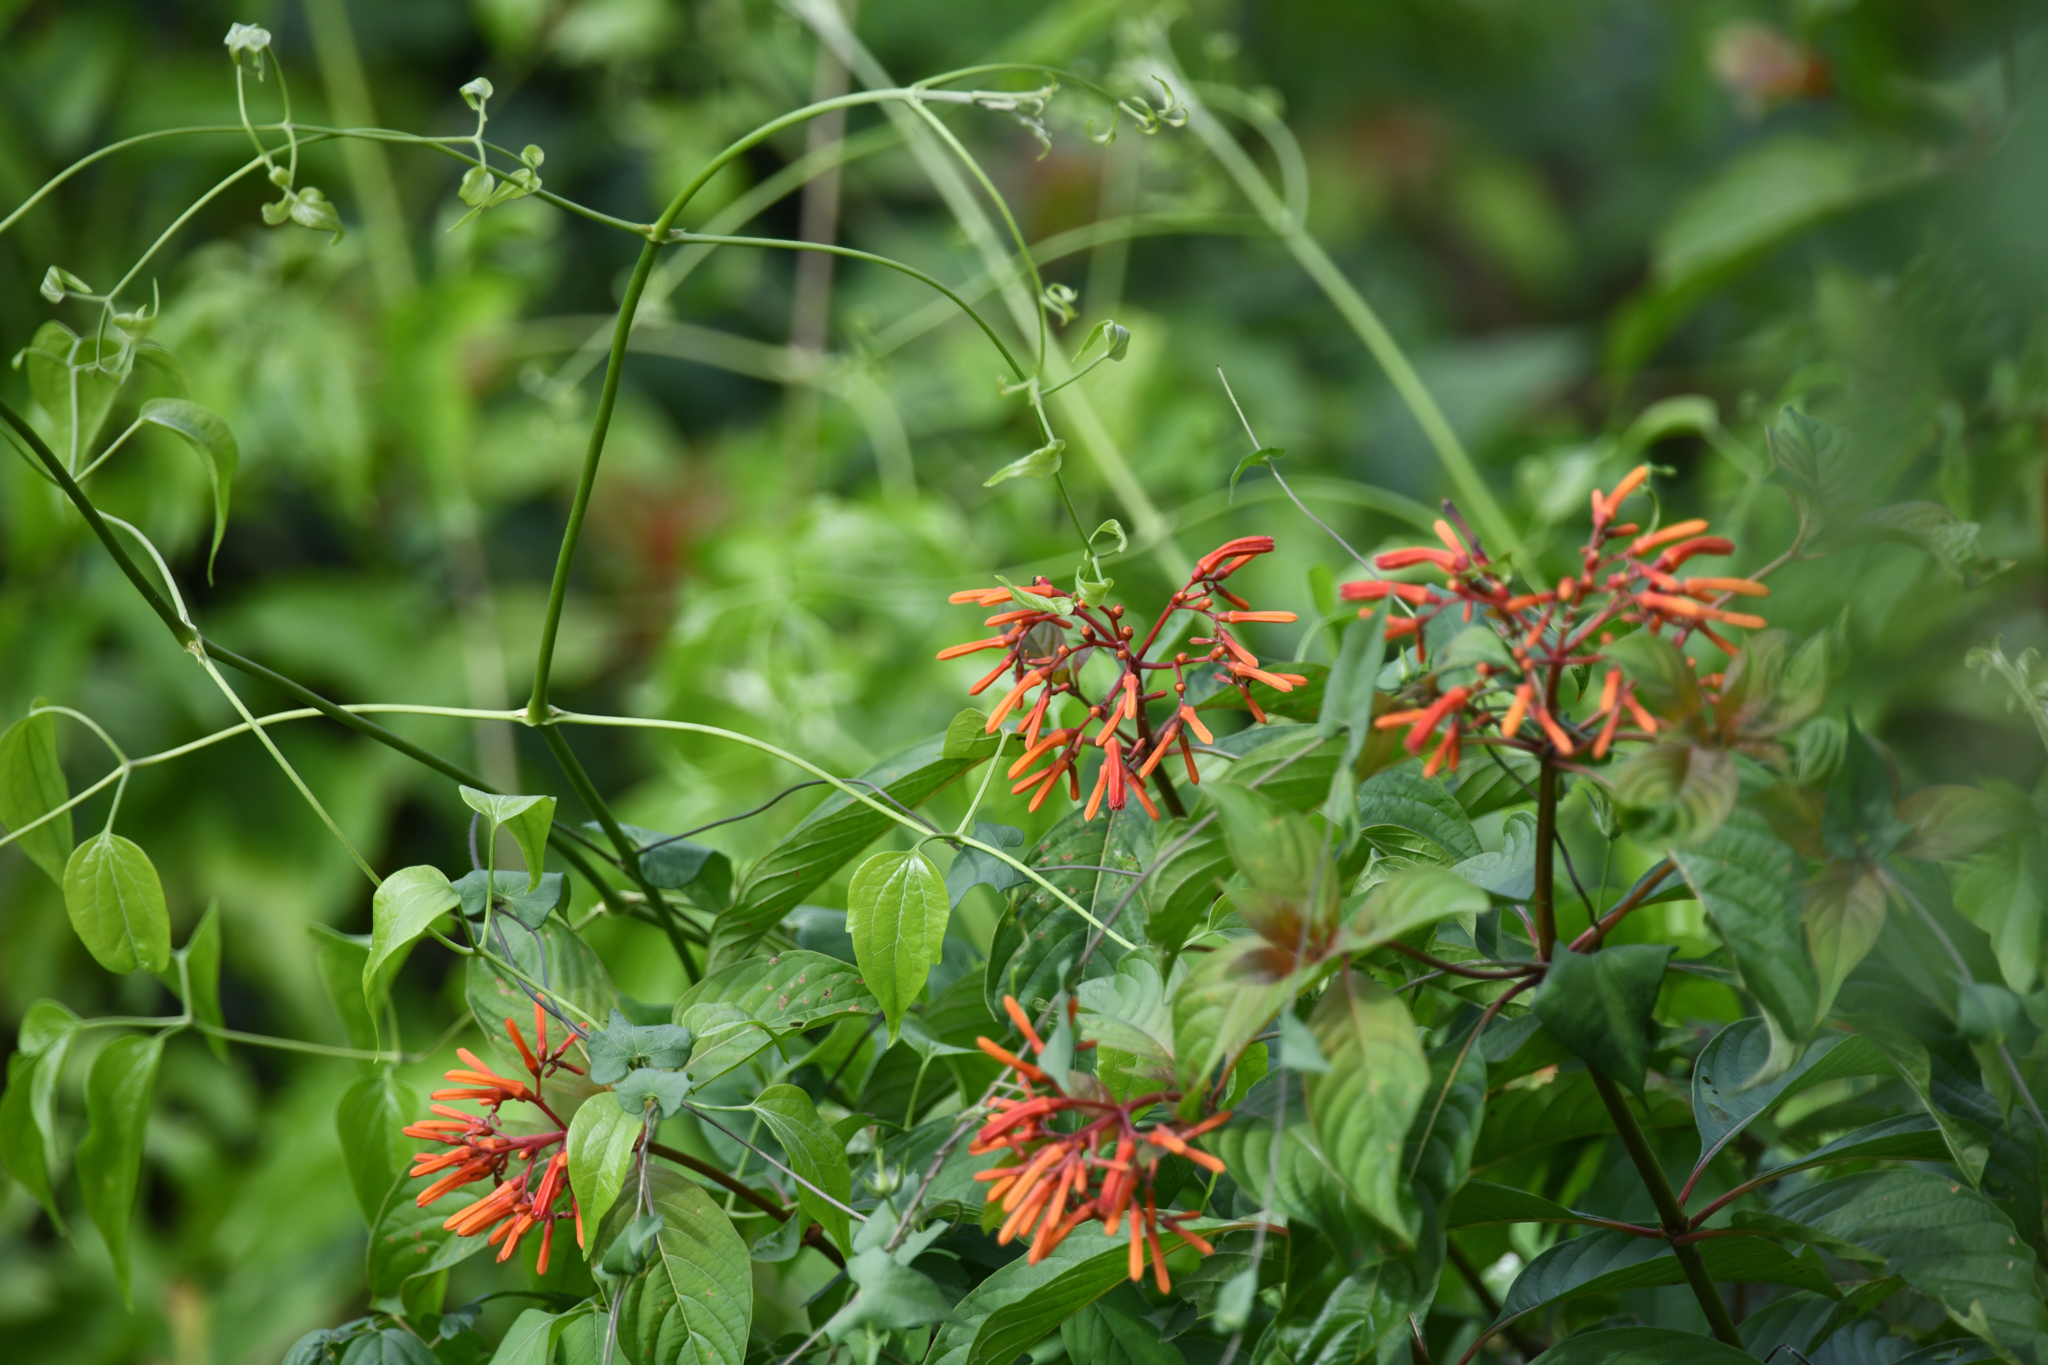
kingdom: Plantae
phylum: Tracheophyta
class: Magnoliopsida
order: Gentianales
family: Rubiaceae
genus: Hamelia
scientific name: Hamelia patens
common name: Redhead
